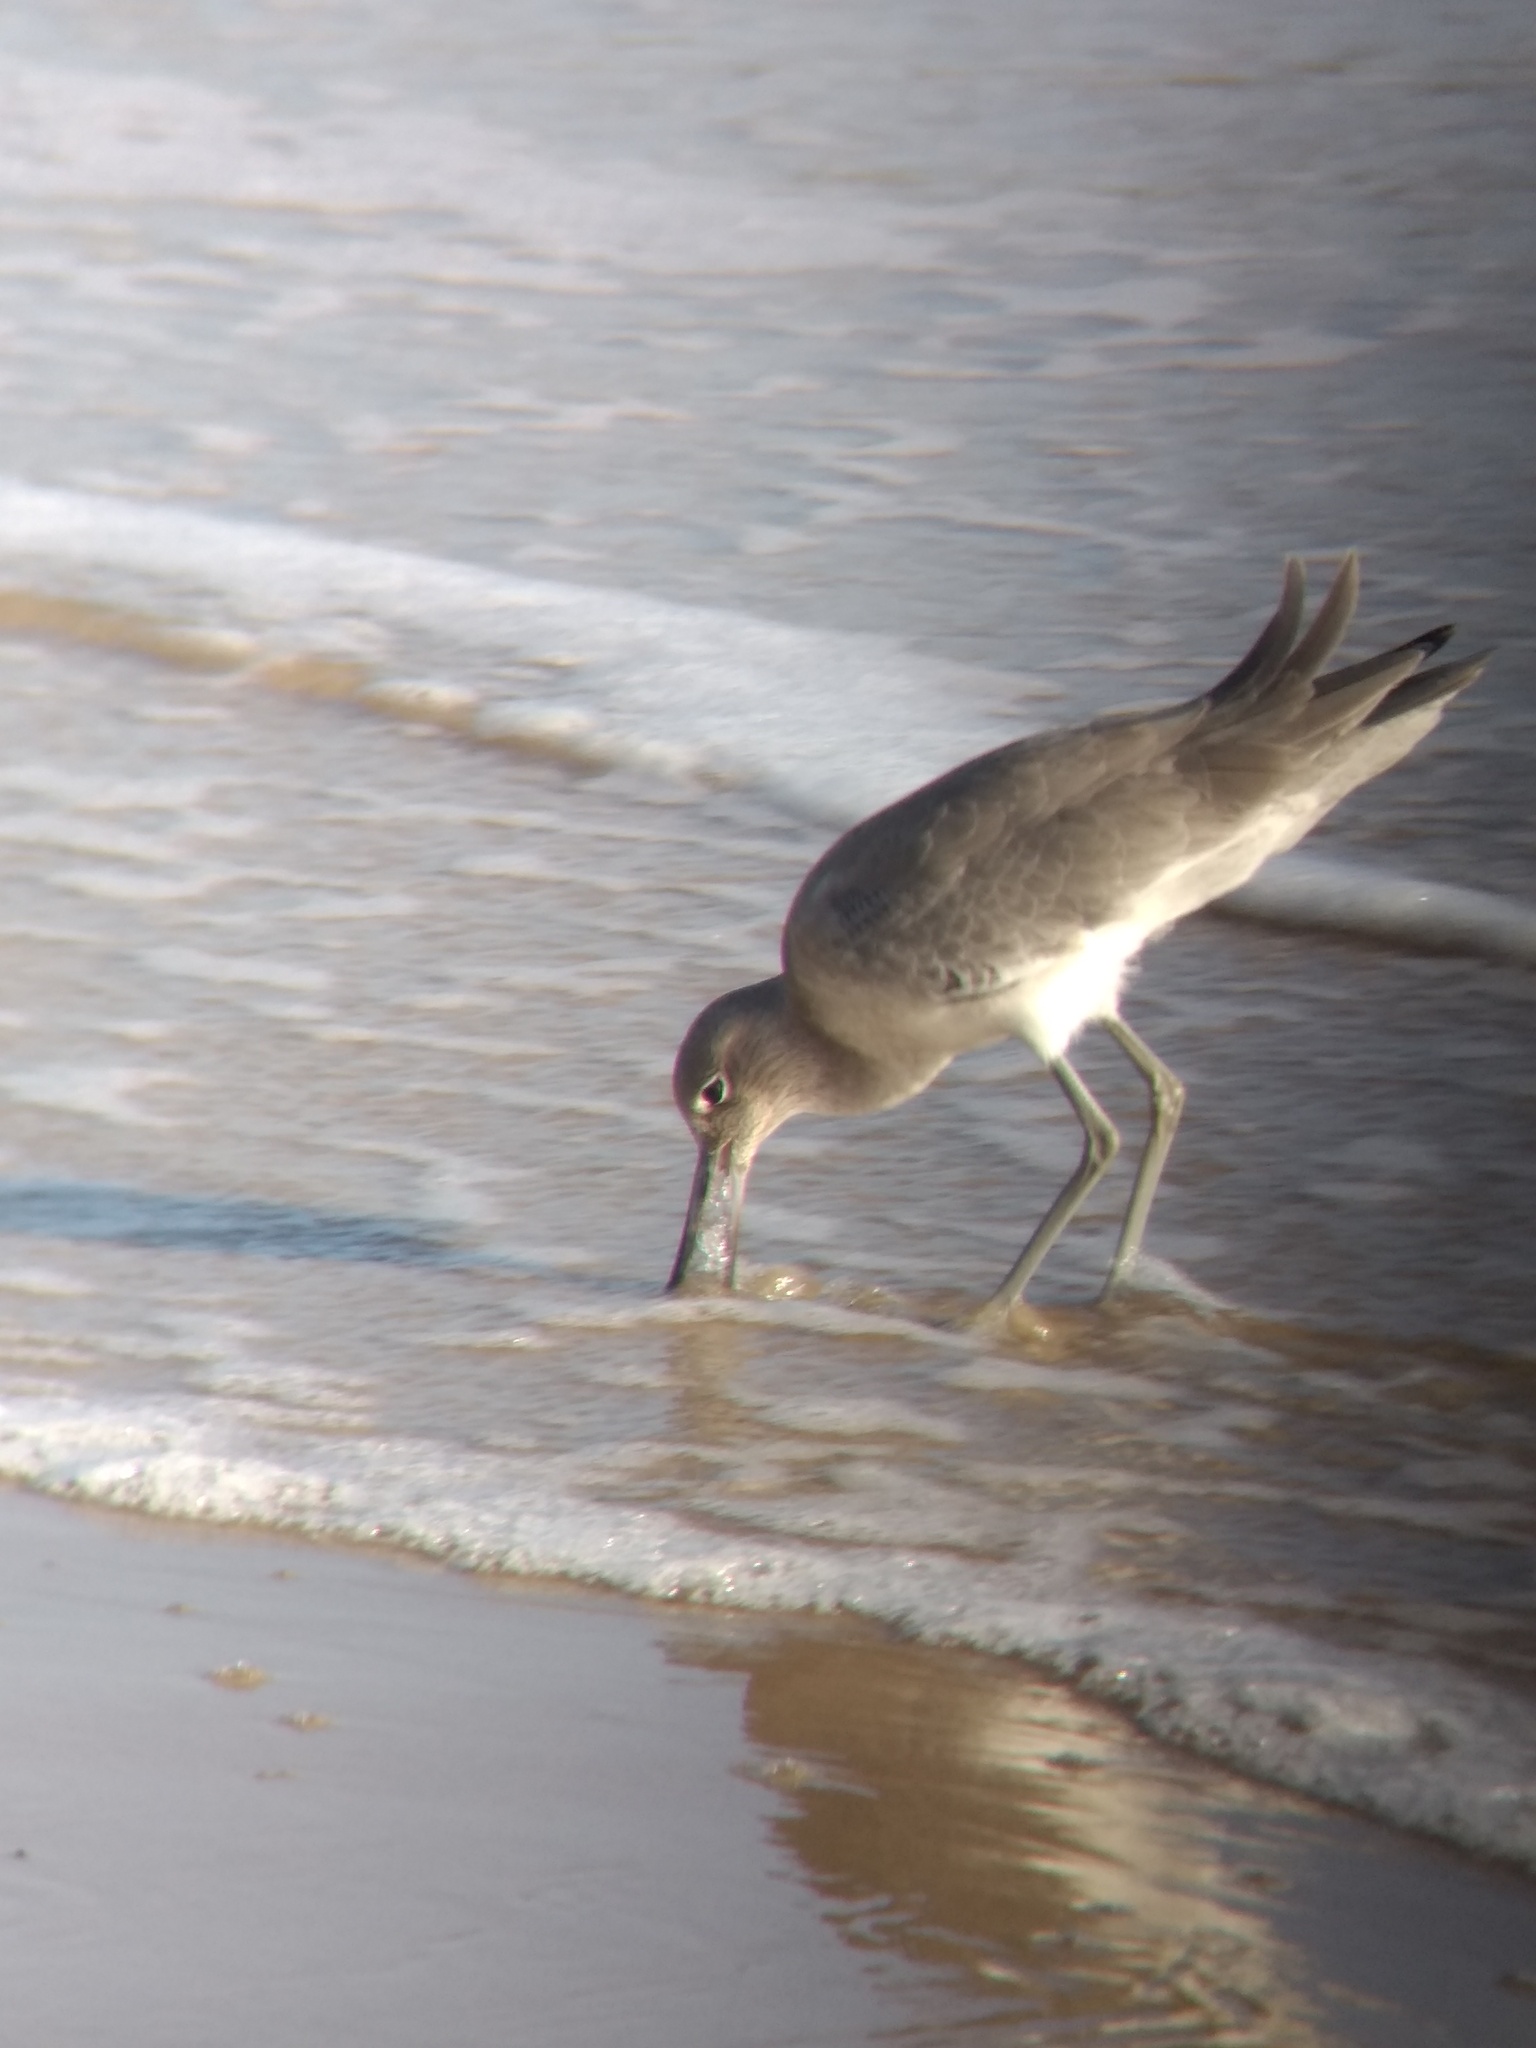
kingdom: Animalia
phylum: Chordata
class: Aves
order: Charadriiformes
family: Scolopacidae
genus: Tringa
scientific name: Tringa semipalmata
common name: Willet
